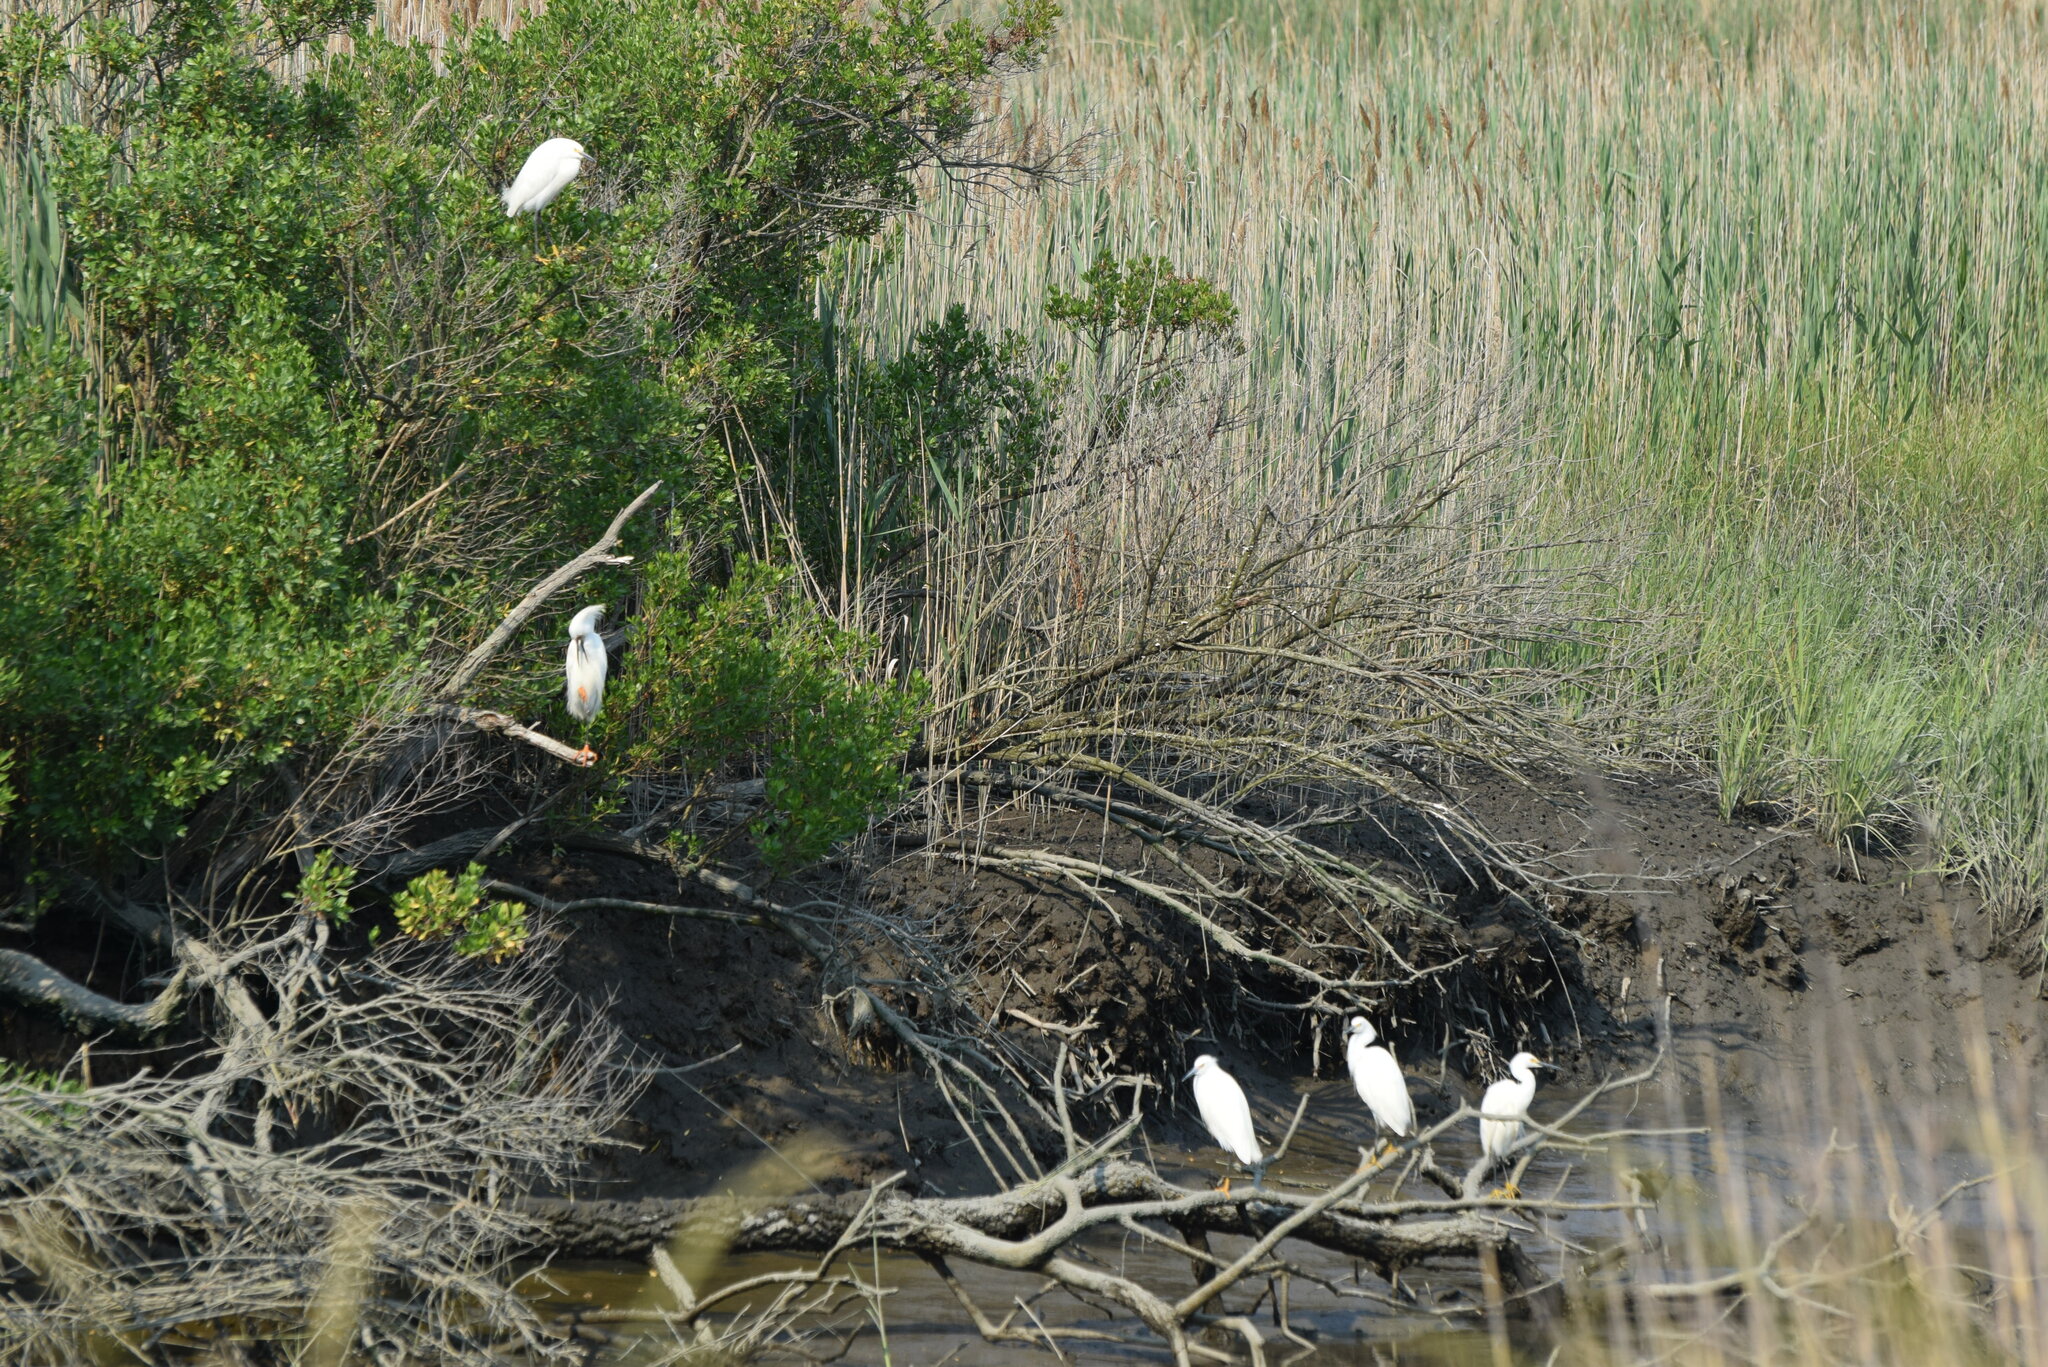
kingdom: Animalia
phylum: Chordata
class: Aves
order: Pelecaniformes
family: Ardeidae
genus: Egretta
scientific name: Egretta thula
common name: Snowy egret
